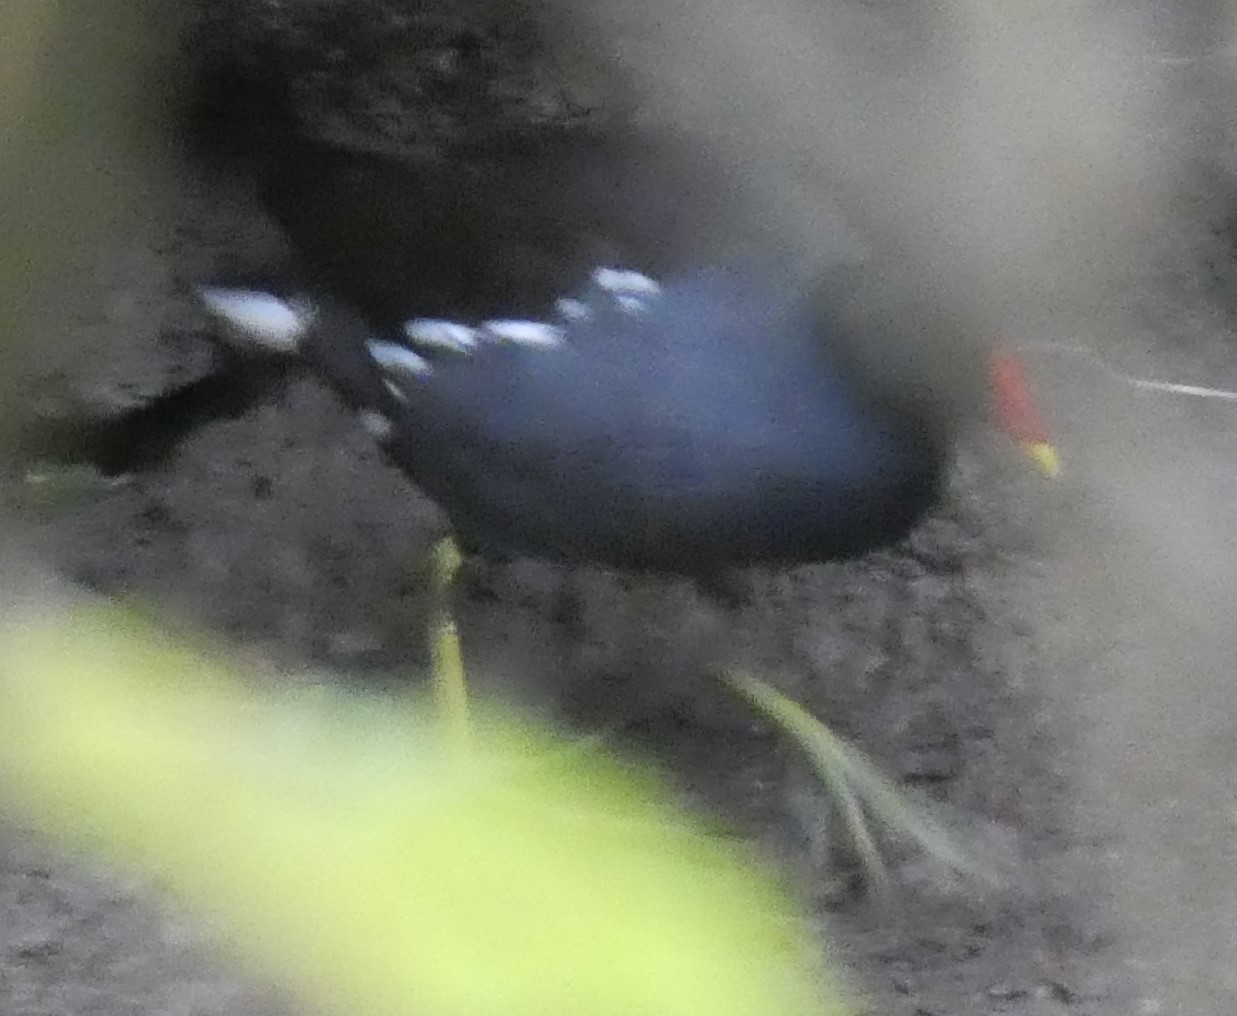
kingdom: Animalia
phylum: Chordata
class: Aves
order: Gruiformes
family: Rallidae
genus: Gallinula
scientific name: Gallinula chloropus
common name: Common moorhen
